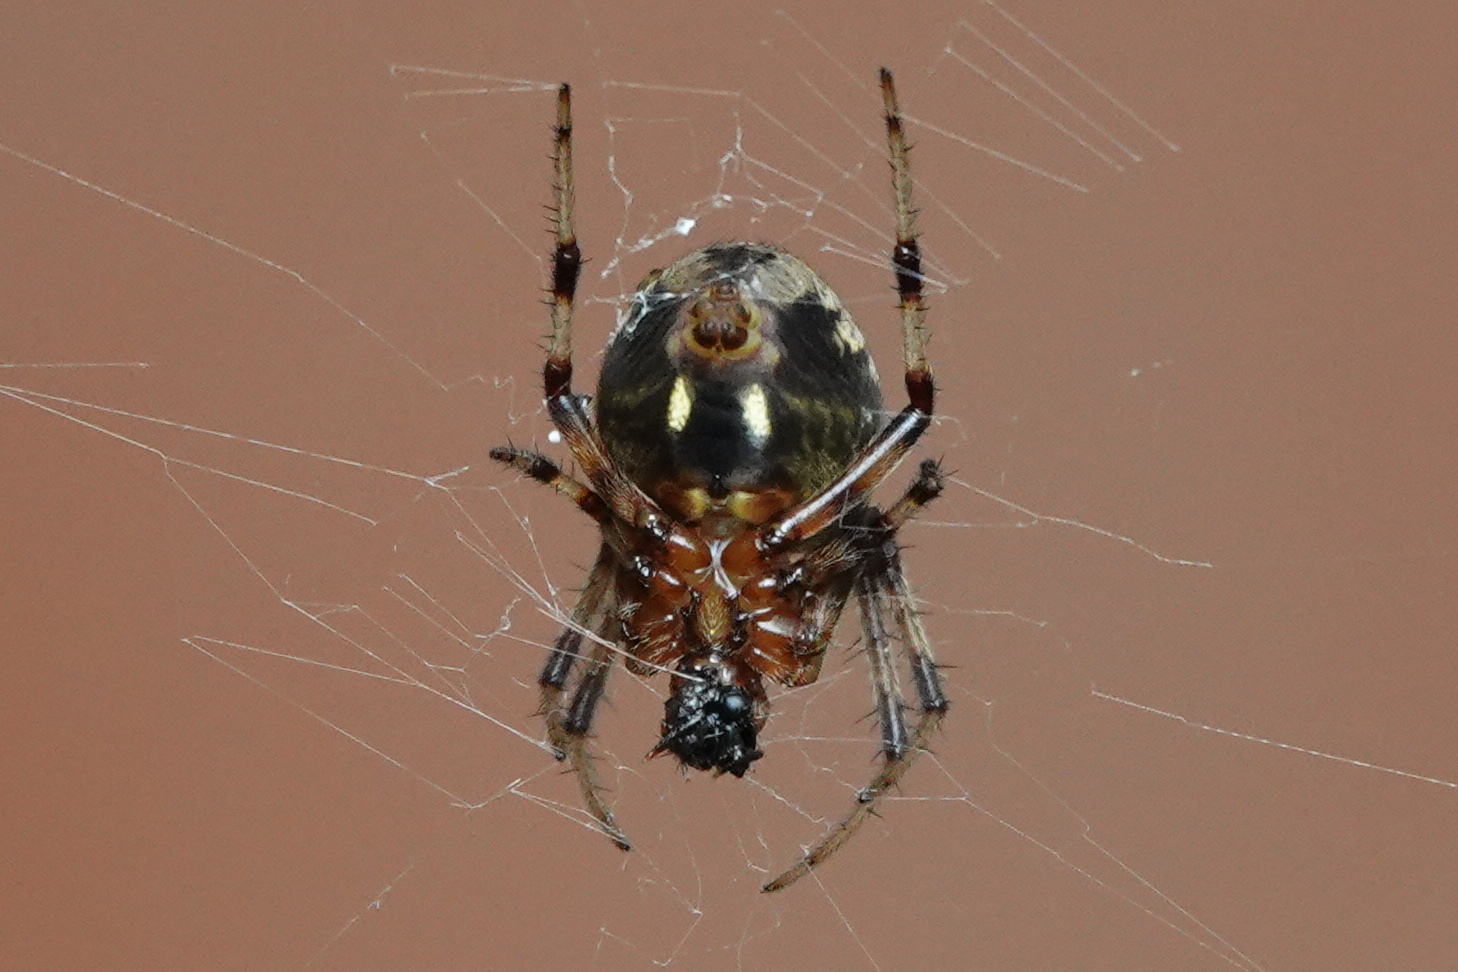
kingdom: Animalia
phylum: Arthropoda
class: Arachnida
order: Araneae
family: Araneidae
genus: Neoscona
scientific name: Neoscona domiciliorum
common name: Red-femured spotted orbweaver
